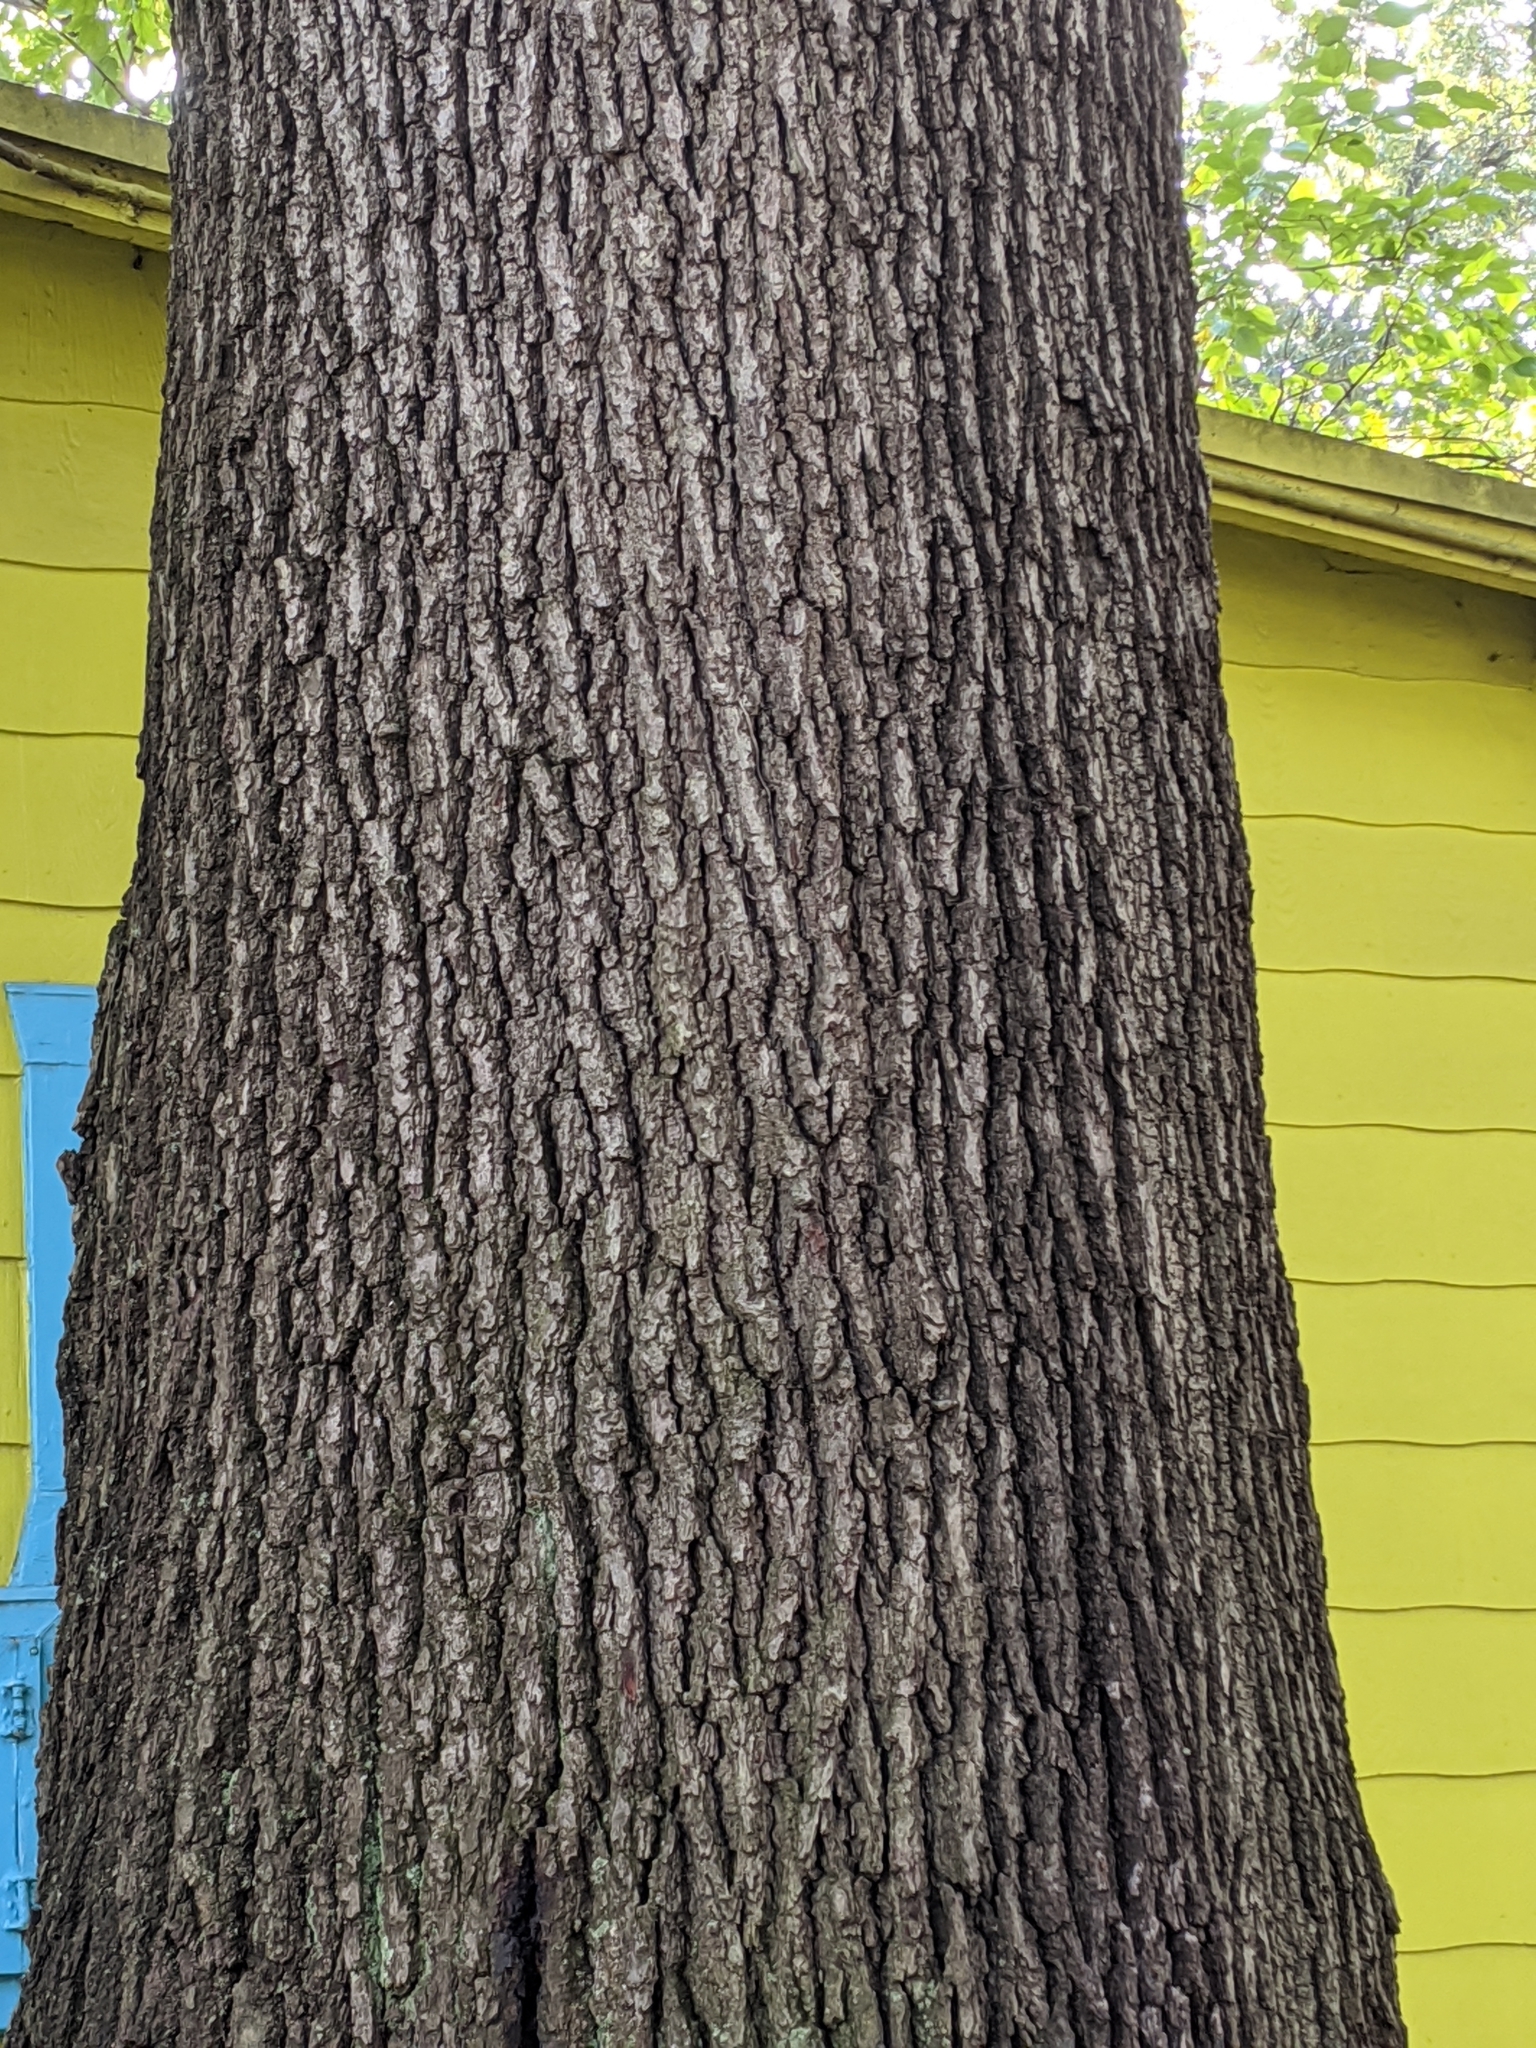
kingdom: Plantae
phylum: Tracheophyta
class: Magnoliopsida
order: Fagales
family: Fagaceae
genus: Quercus
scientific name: Quercus falcata
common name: Southern red oak
